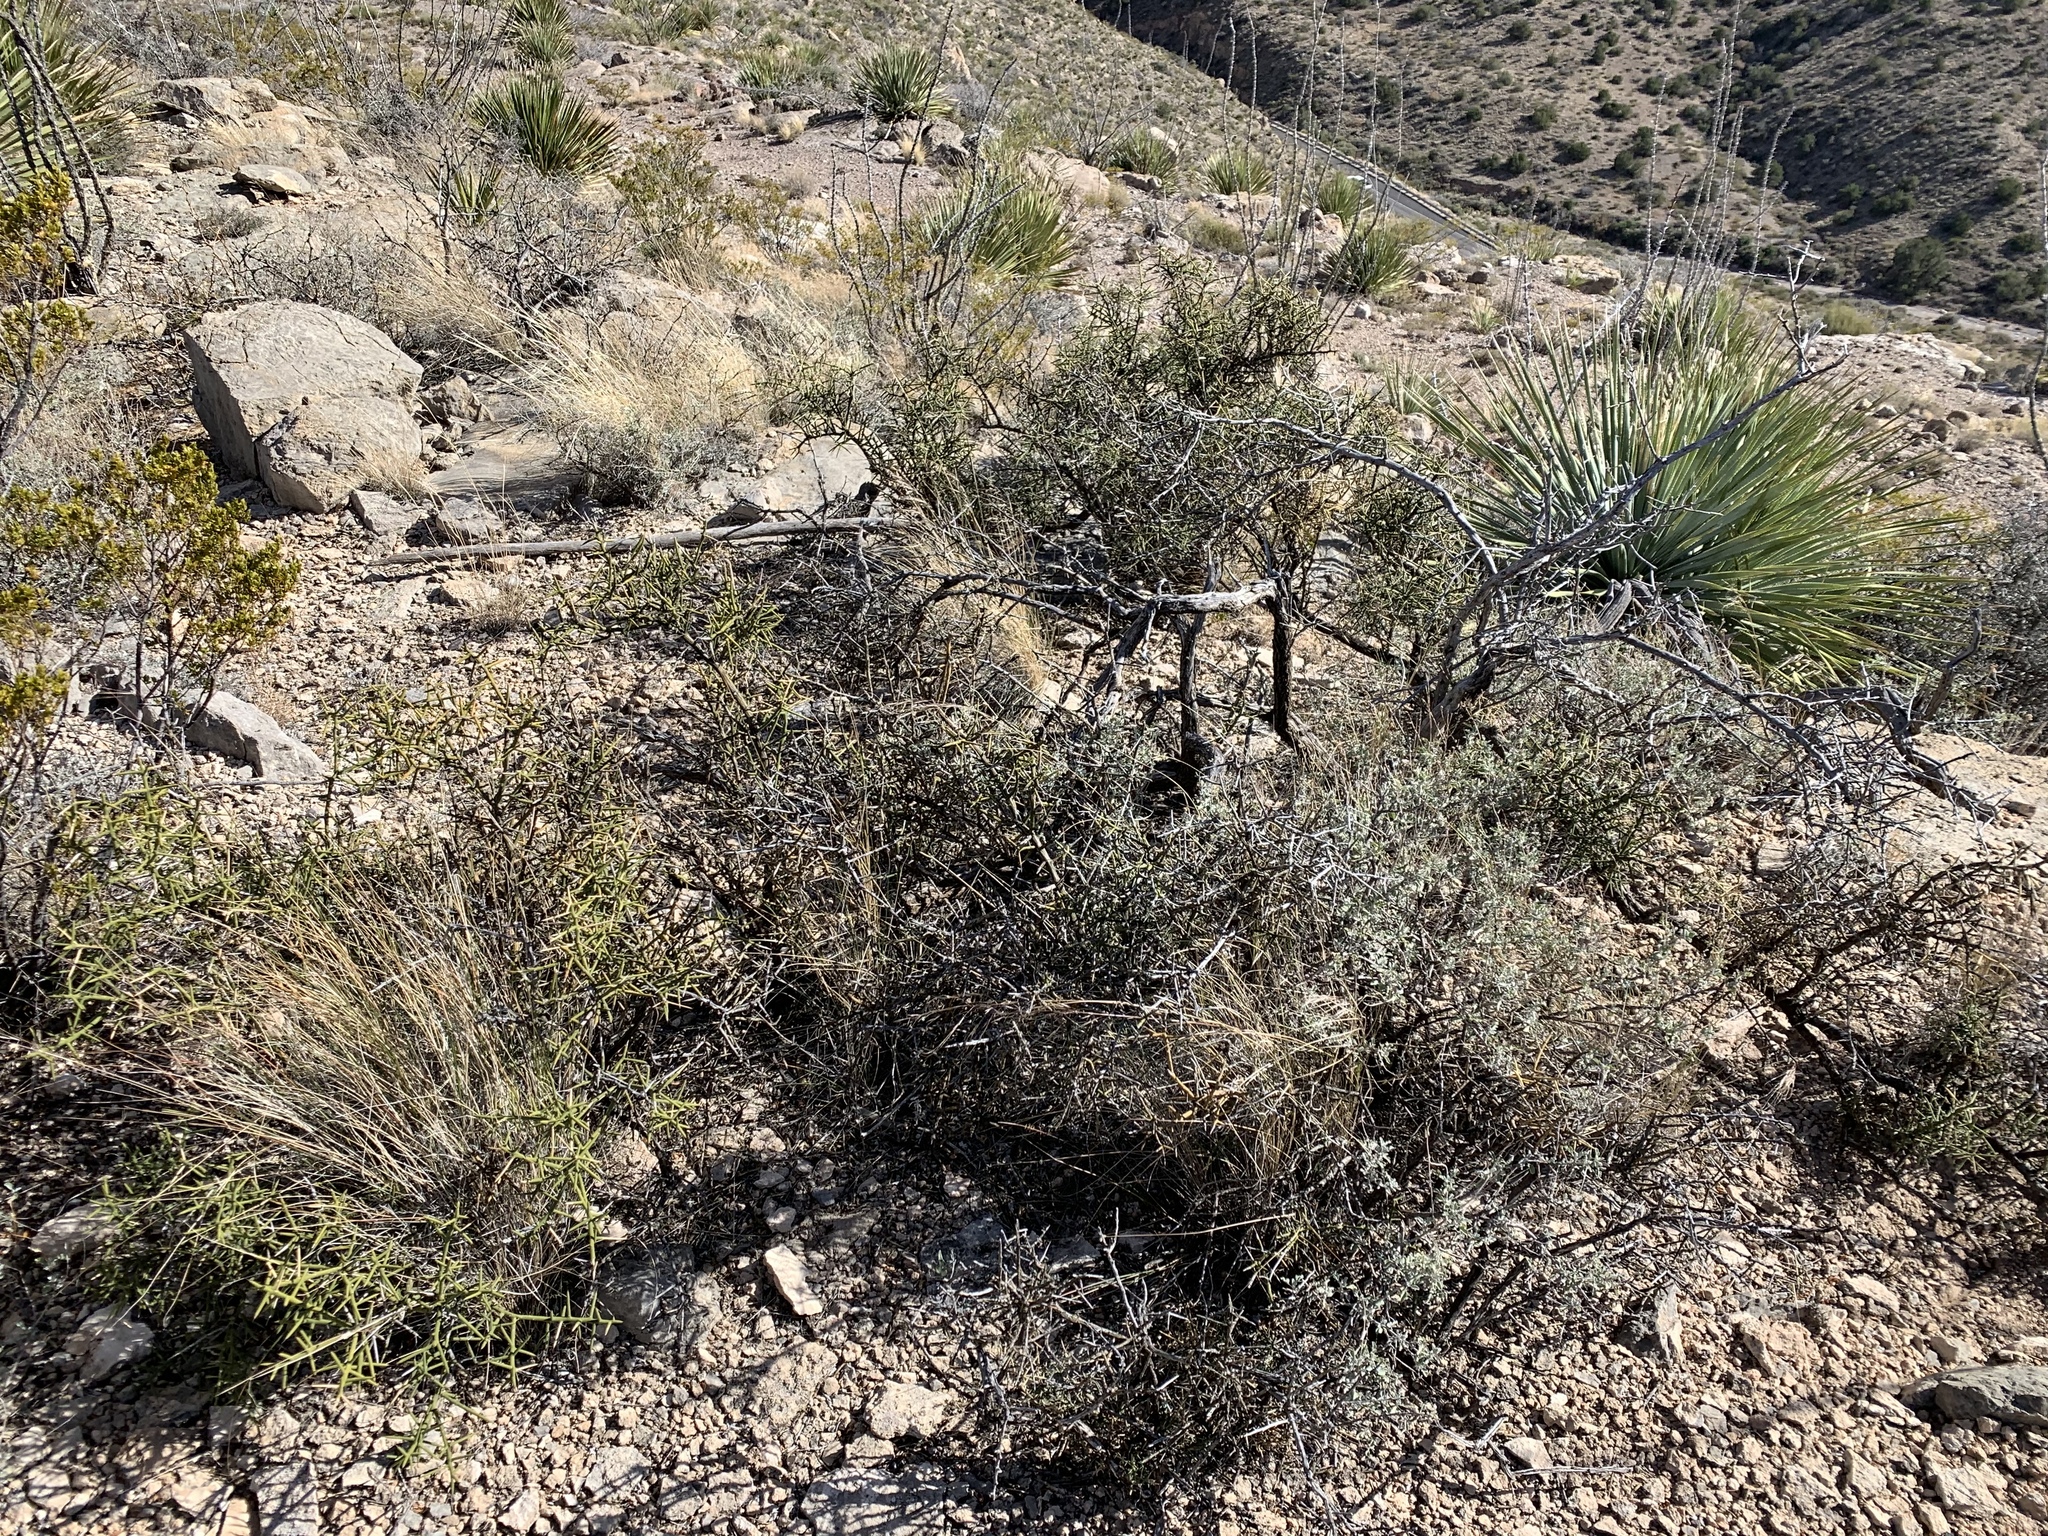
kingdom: Plantae
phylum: Tracheophyta
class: Magnoliopsida
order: Brassicales
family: Koeberliniaceae
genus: Koeberlinia
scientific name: Koeberlinia spinosa
